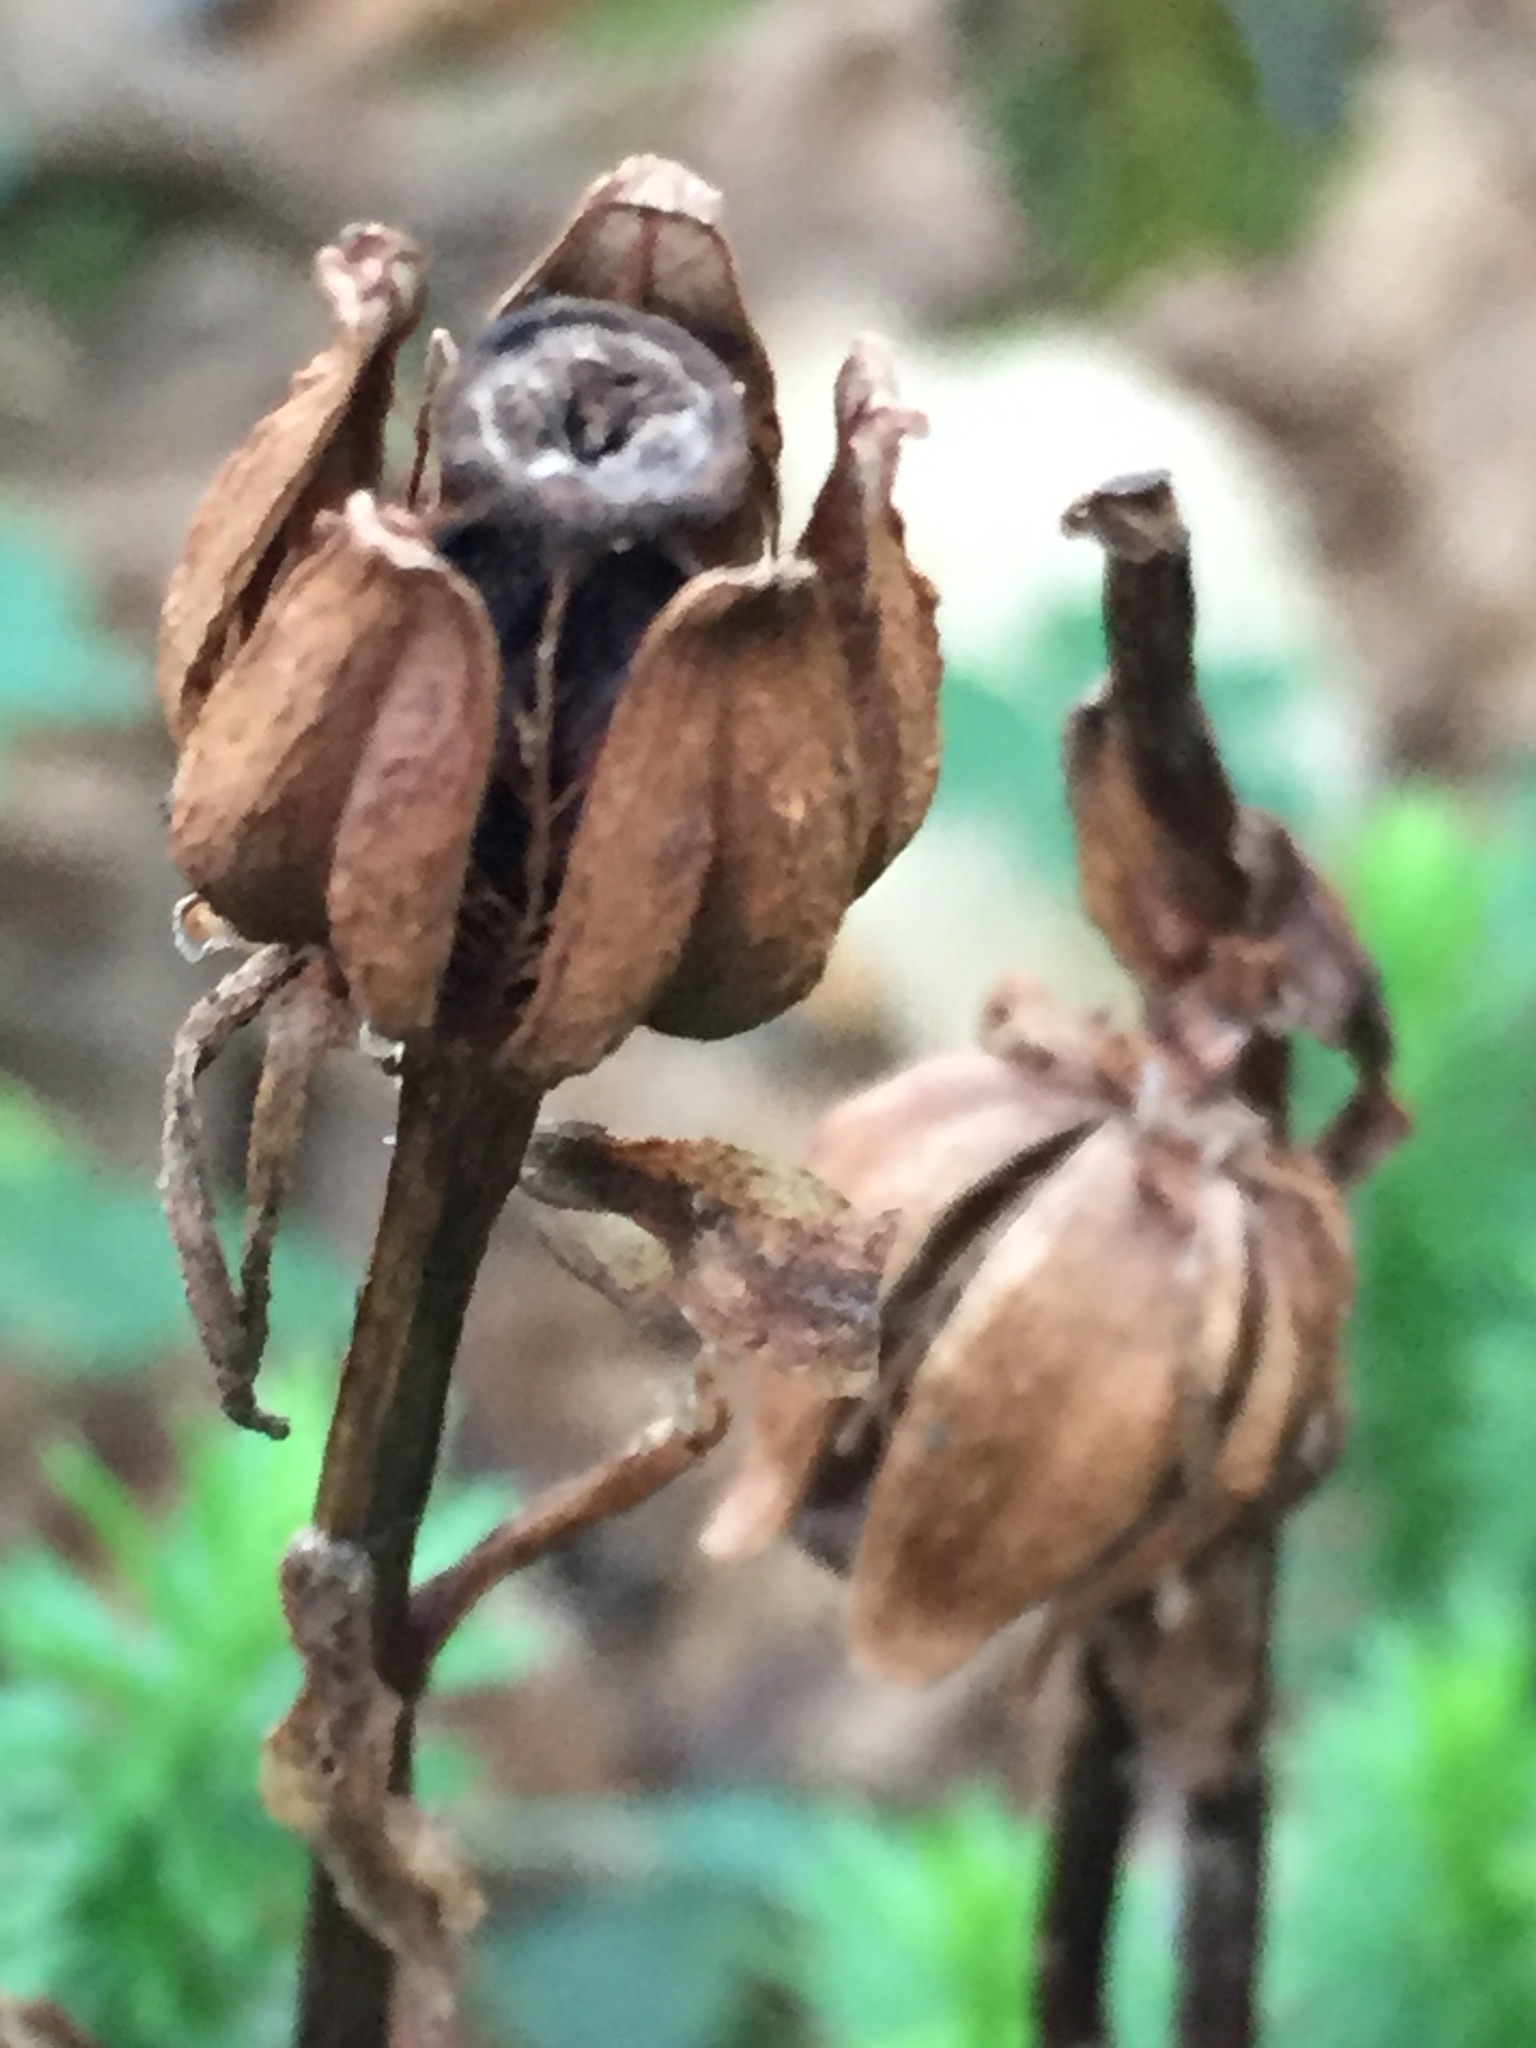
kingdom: Plantae
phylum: Tracheophyta
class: Magnoliopsida
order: Ericales
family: Ericaceae
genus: Monotropa
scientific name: Monotropa uniflora
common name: Convulsion root
